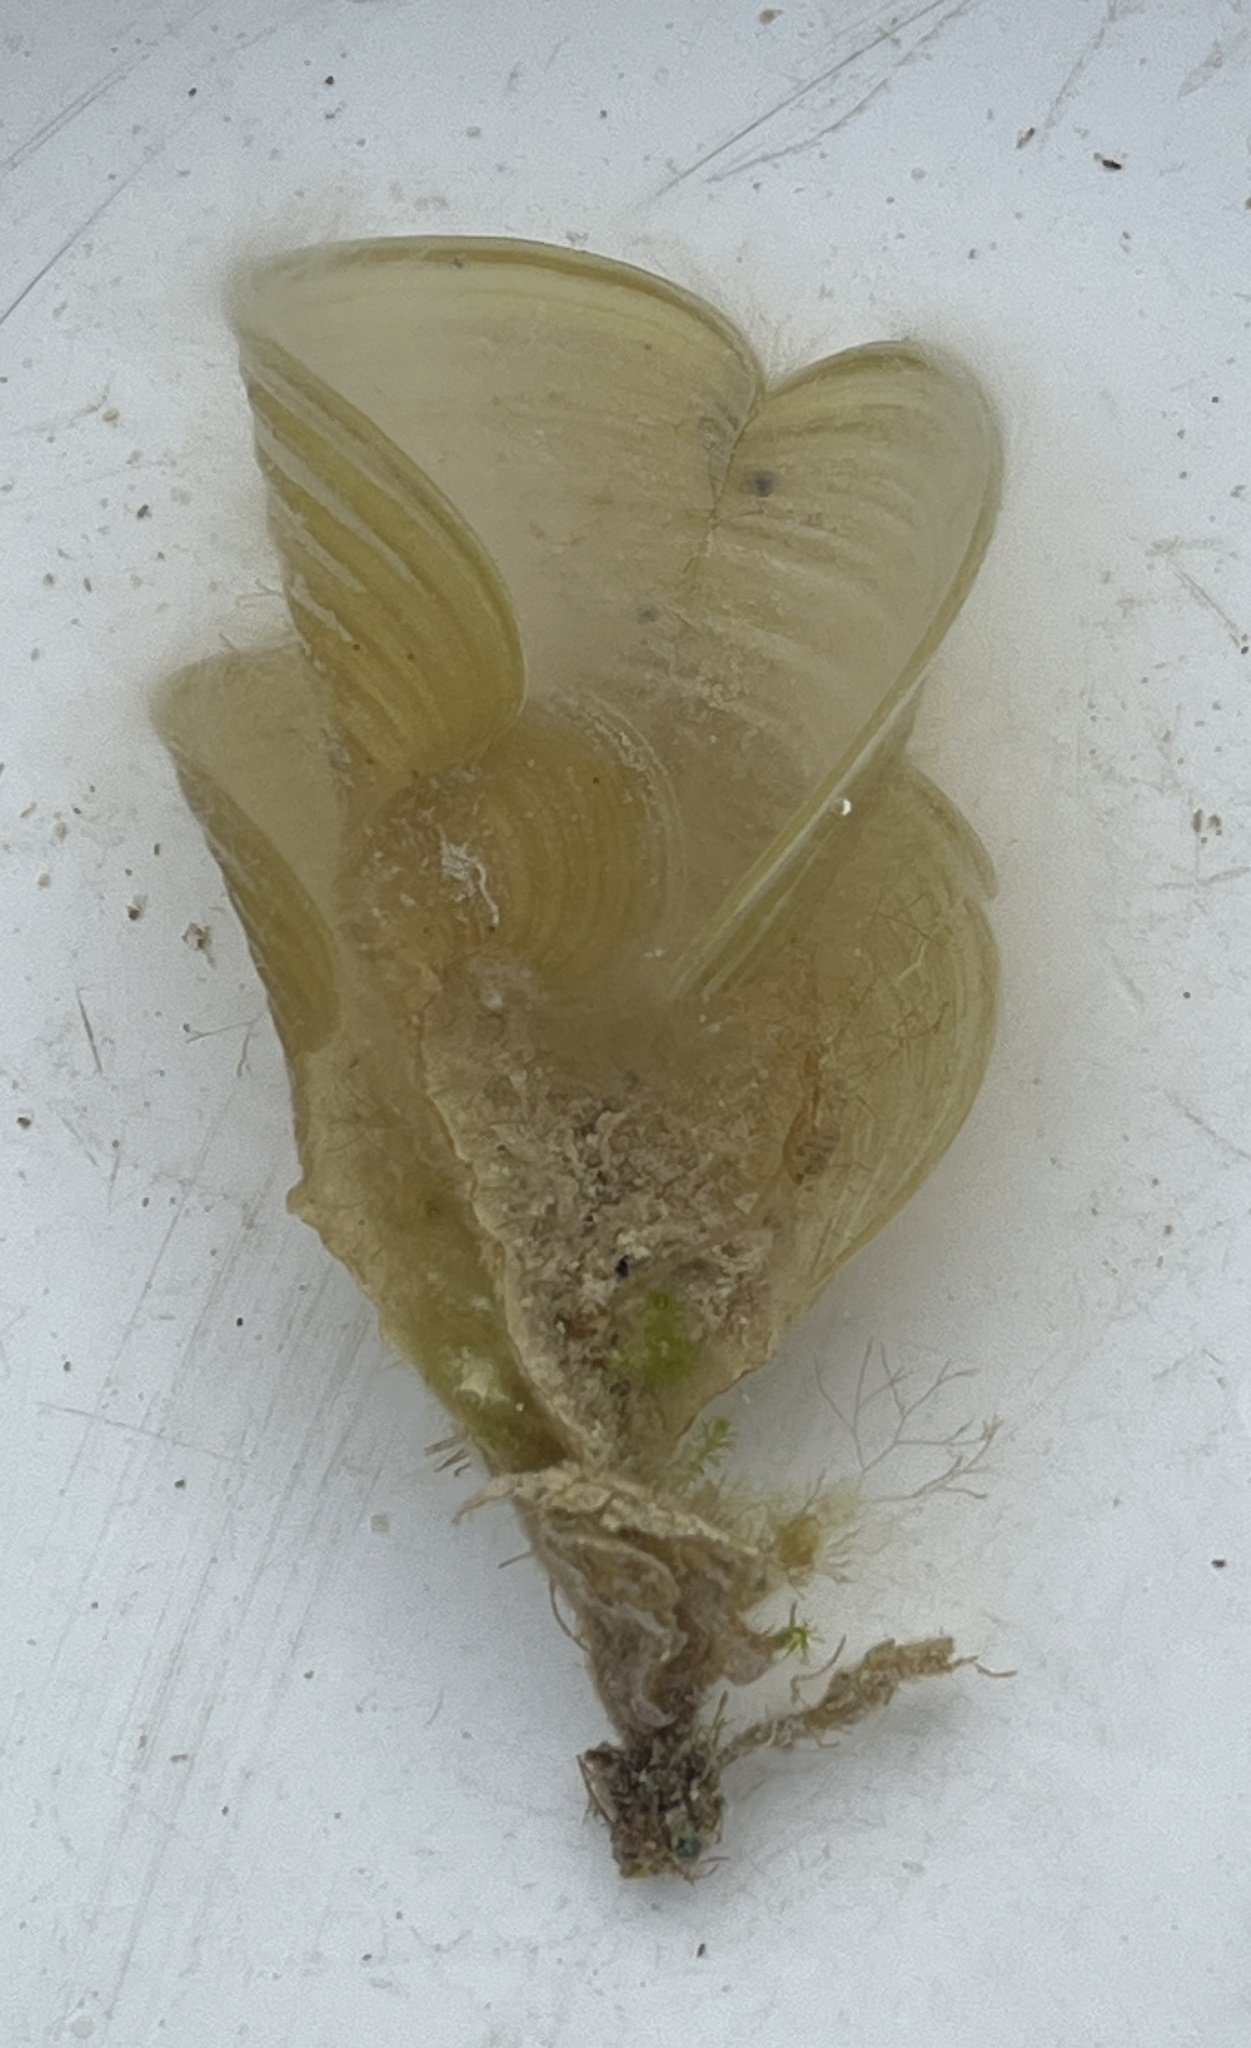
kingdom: Chromista
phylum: Ochrophyta
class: Phaeophyceae
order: Dictyotales
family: Dictyotaceae
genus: Padina
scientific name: Padina sanctae-crucis
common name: White scroll algae
